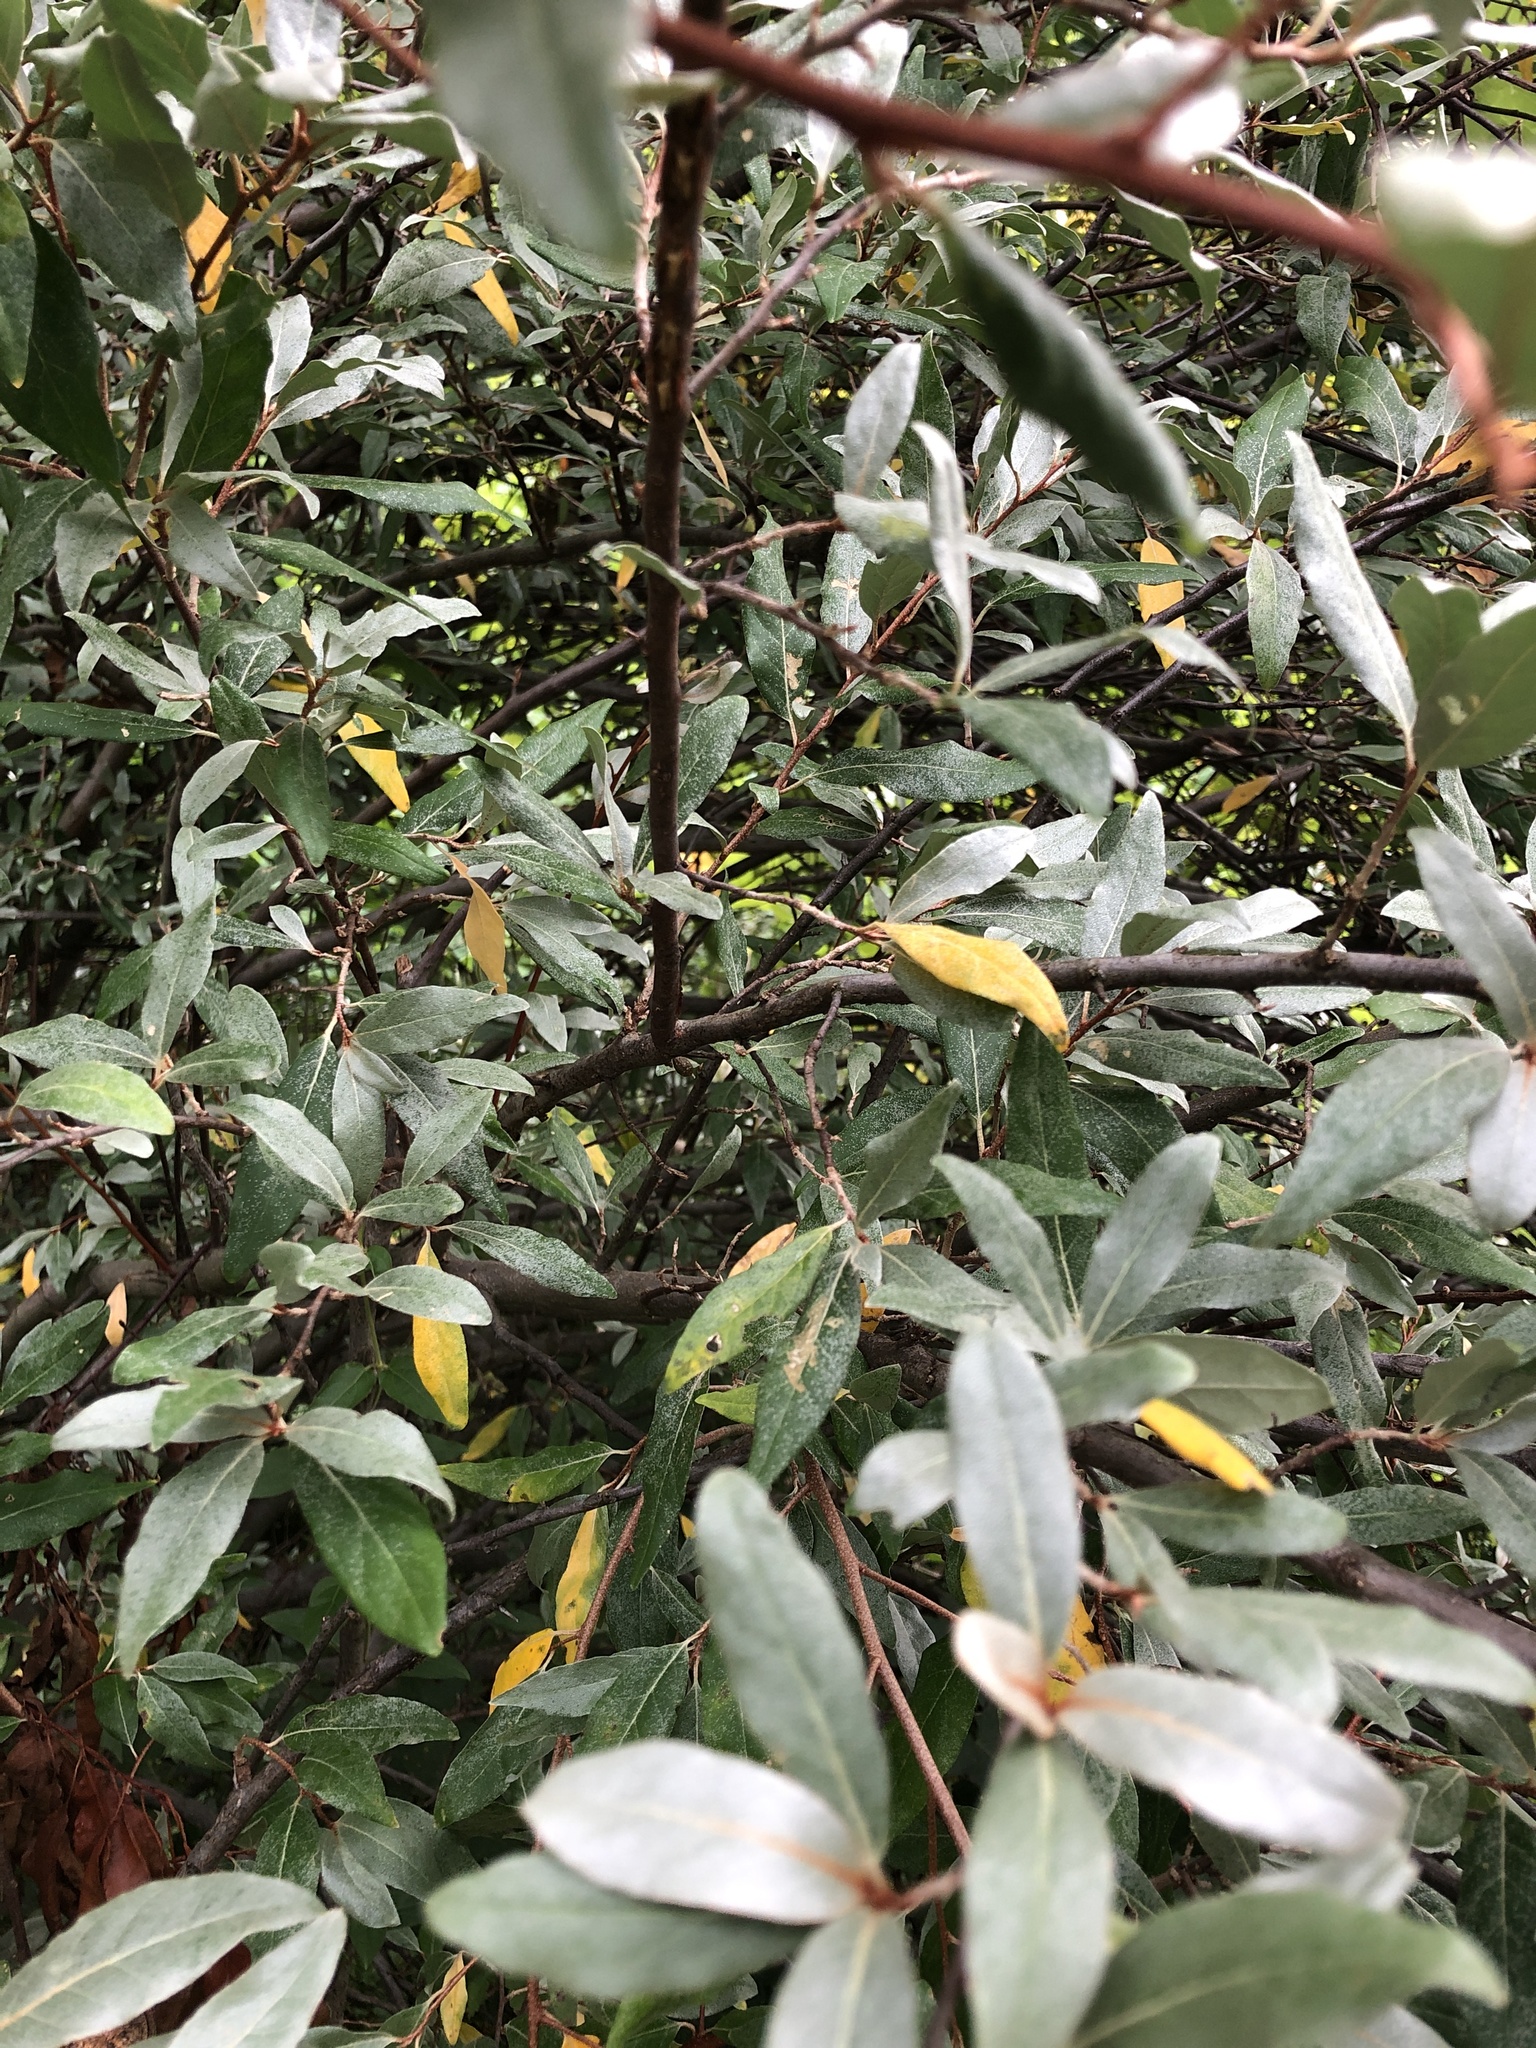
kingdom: Plantae
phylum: Tracheophyta
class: Magnoliopsida
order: Rosales
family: Elaeagnaceae
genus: Elaeagnus
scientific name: Elaeagnus pungens
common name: Spiny oleaster
